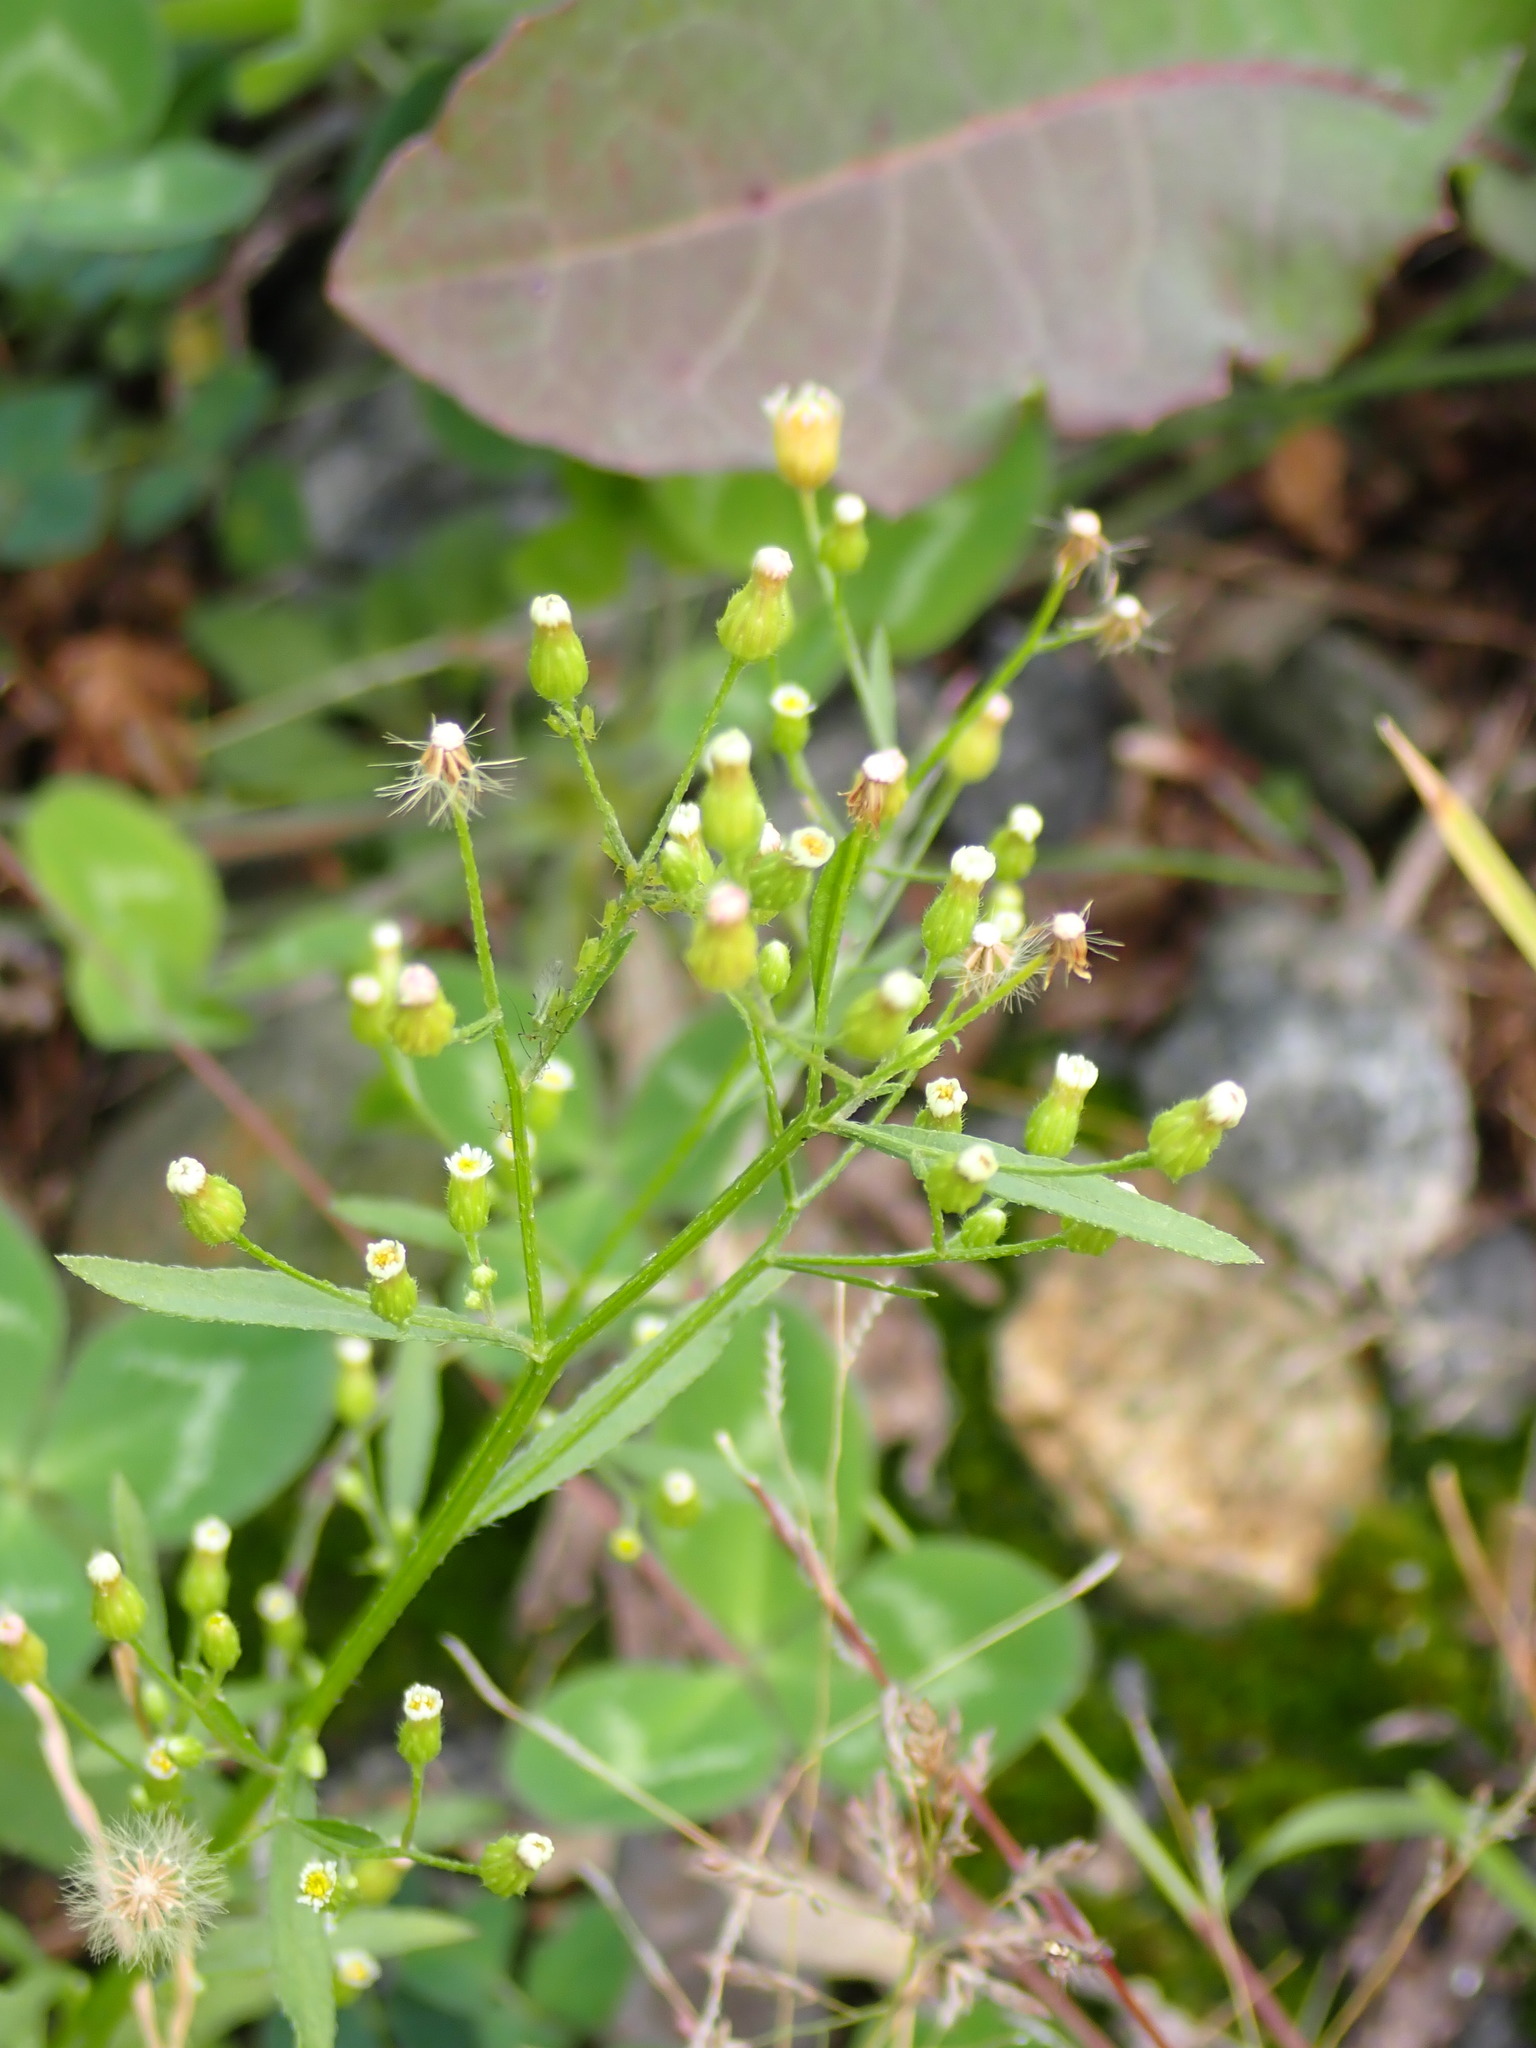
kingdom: Plantae
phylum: Tracheophyta
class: Magnoliopsida
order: Asterales
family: Asteraceae
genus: Erigeron
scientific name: Erigeron canadensis
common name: Canadian fleabane
